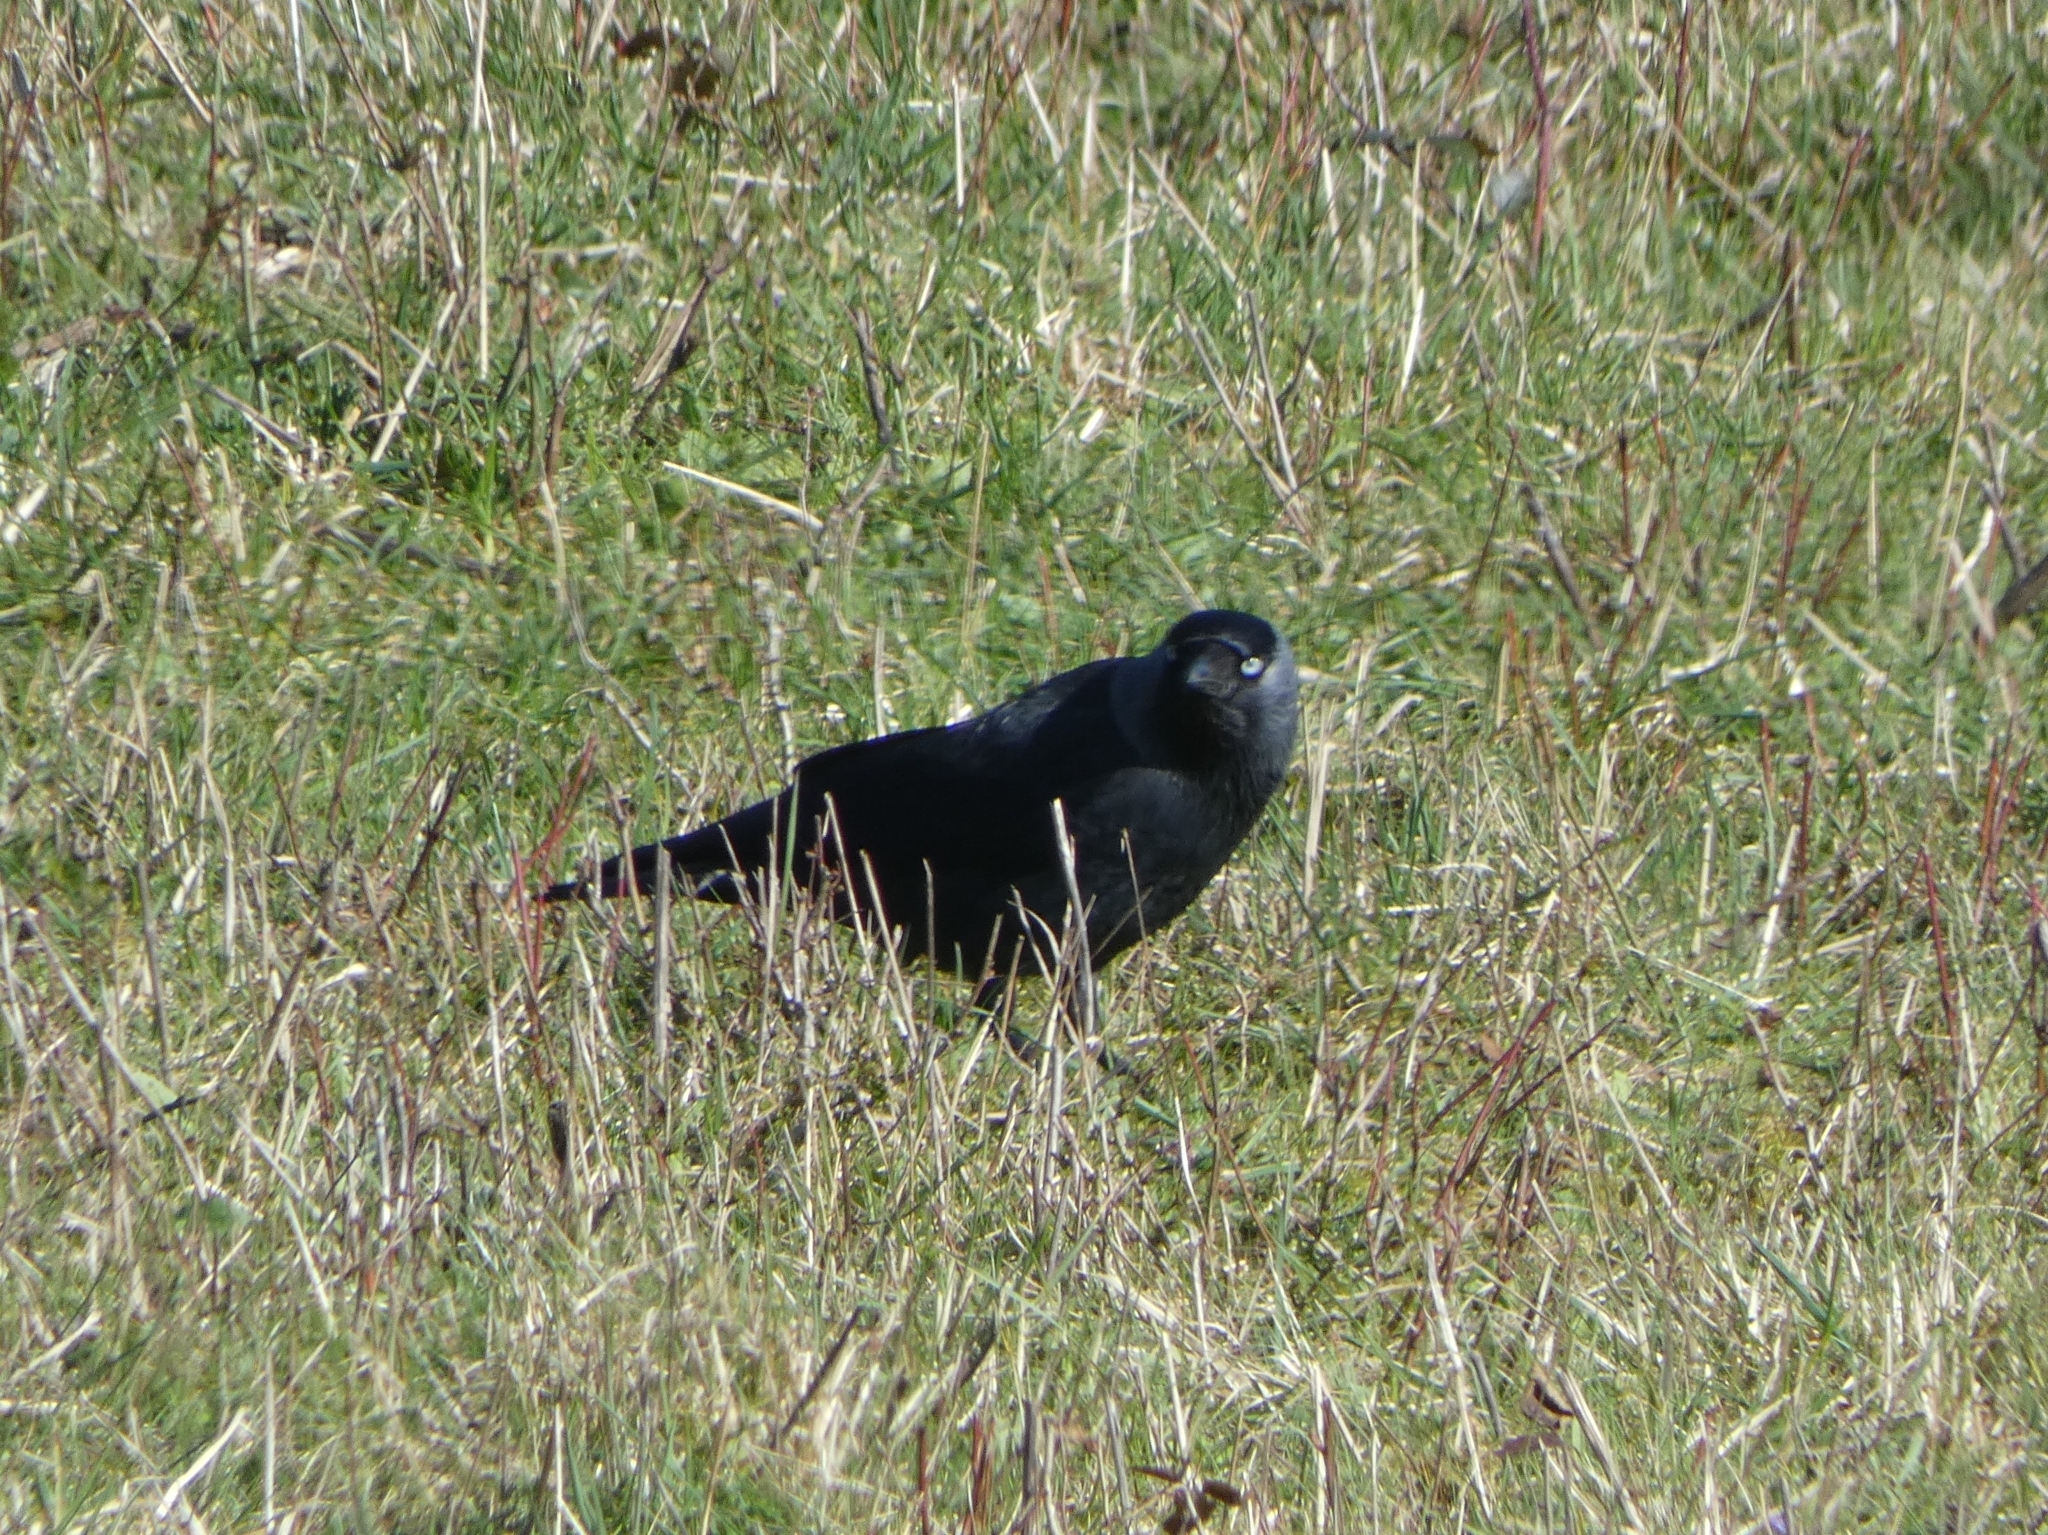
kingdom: Animalia
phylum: Chordata
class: Aves
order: Passeriformes
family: Corvidae
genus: Coloeus
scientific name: Coloeus monedula
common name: Western jackdaw
